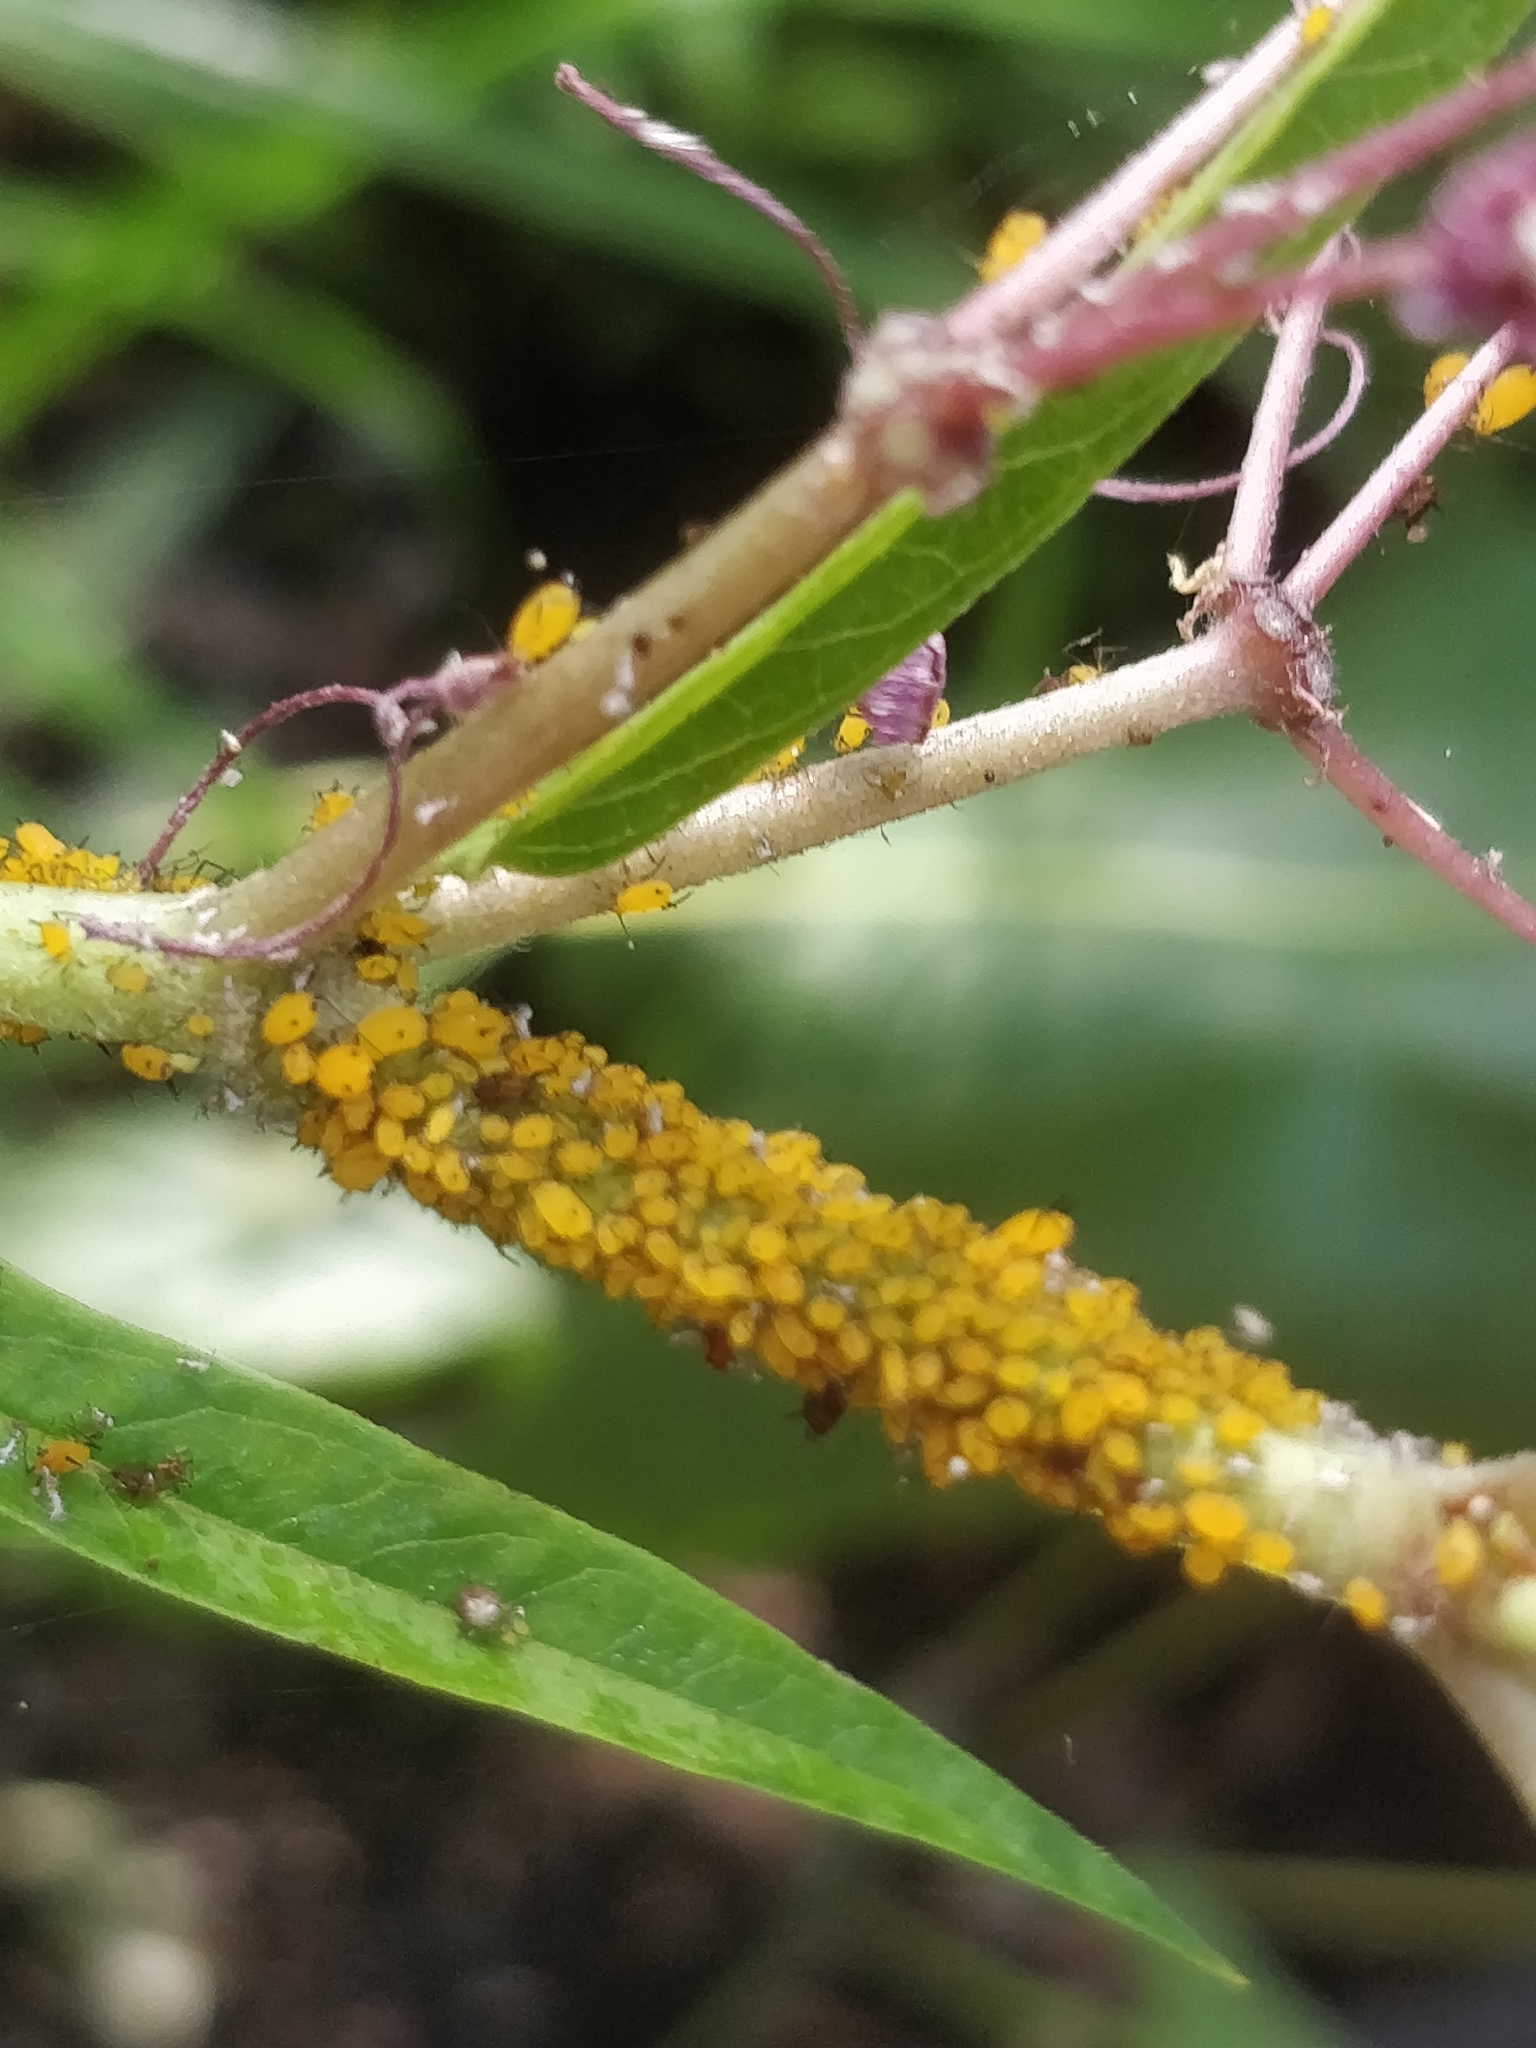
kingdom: Animalia
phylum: Arthropoda
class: Insecta
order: Hemiptera
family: Aphididae
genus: Aphis
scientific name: Aphis nerii
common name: Oleander aphid
